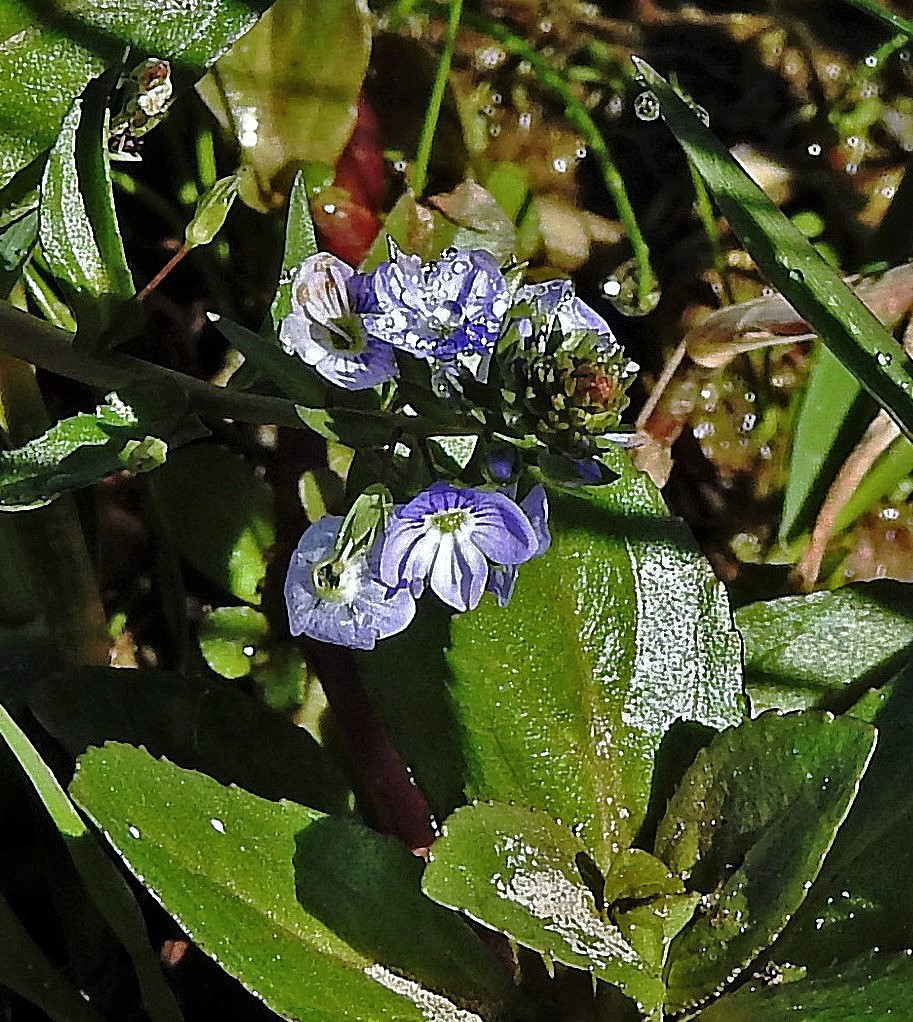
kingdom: Plantae
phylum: Tracheophyta
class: Magnoliopsida
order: Lamiales
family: Plantaginaceae
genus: Veronica
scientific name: Veronica anagallis-aquatica
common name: Water speedwell
